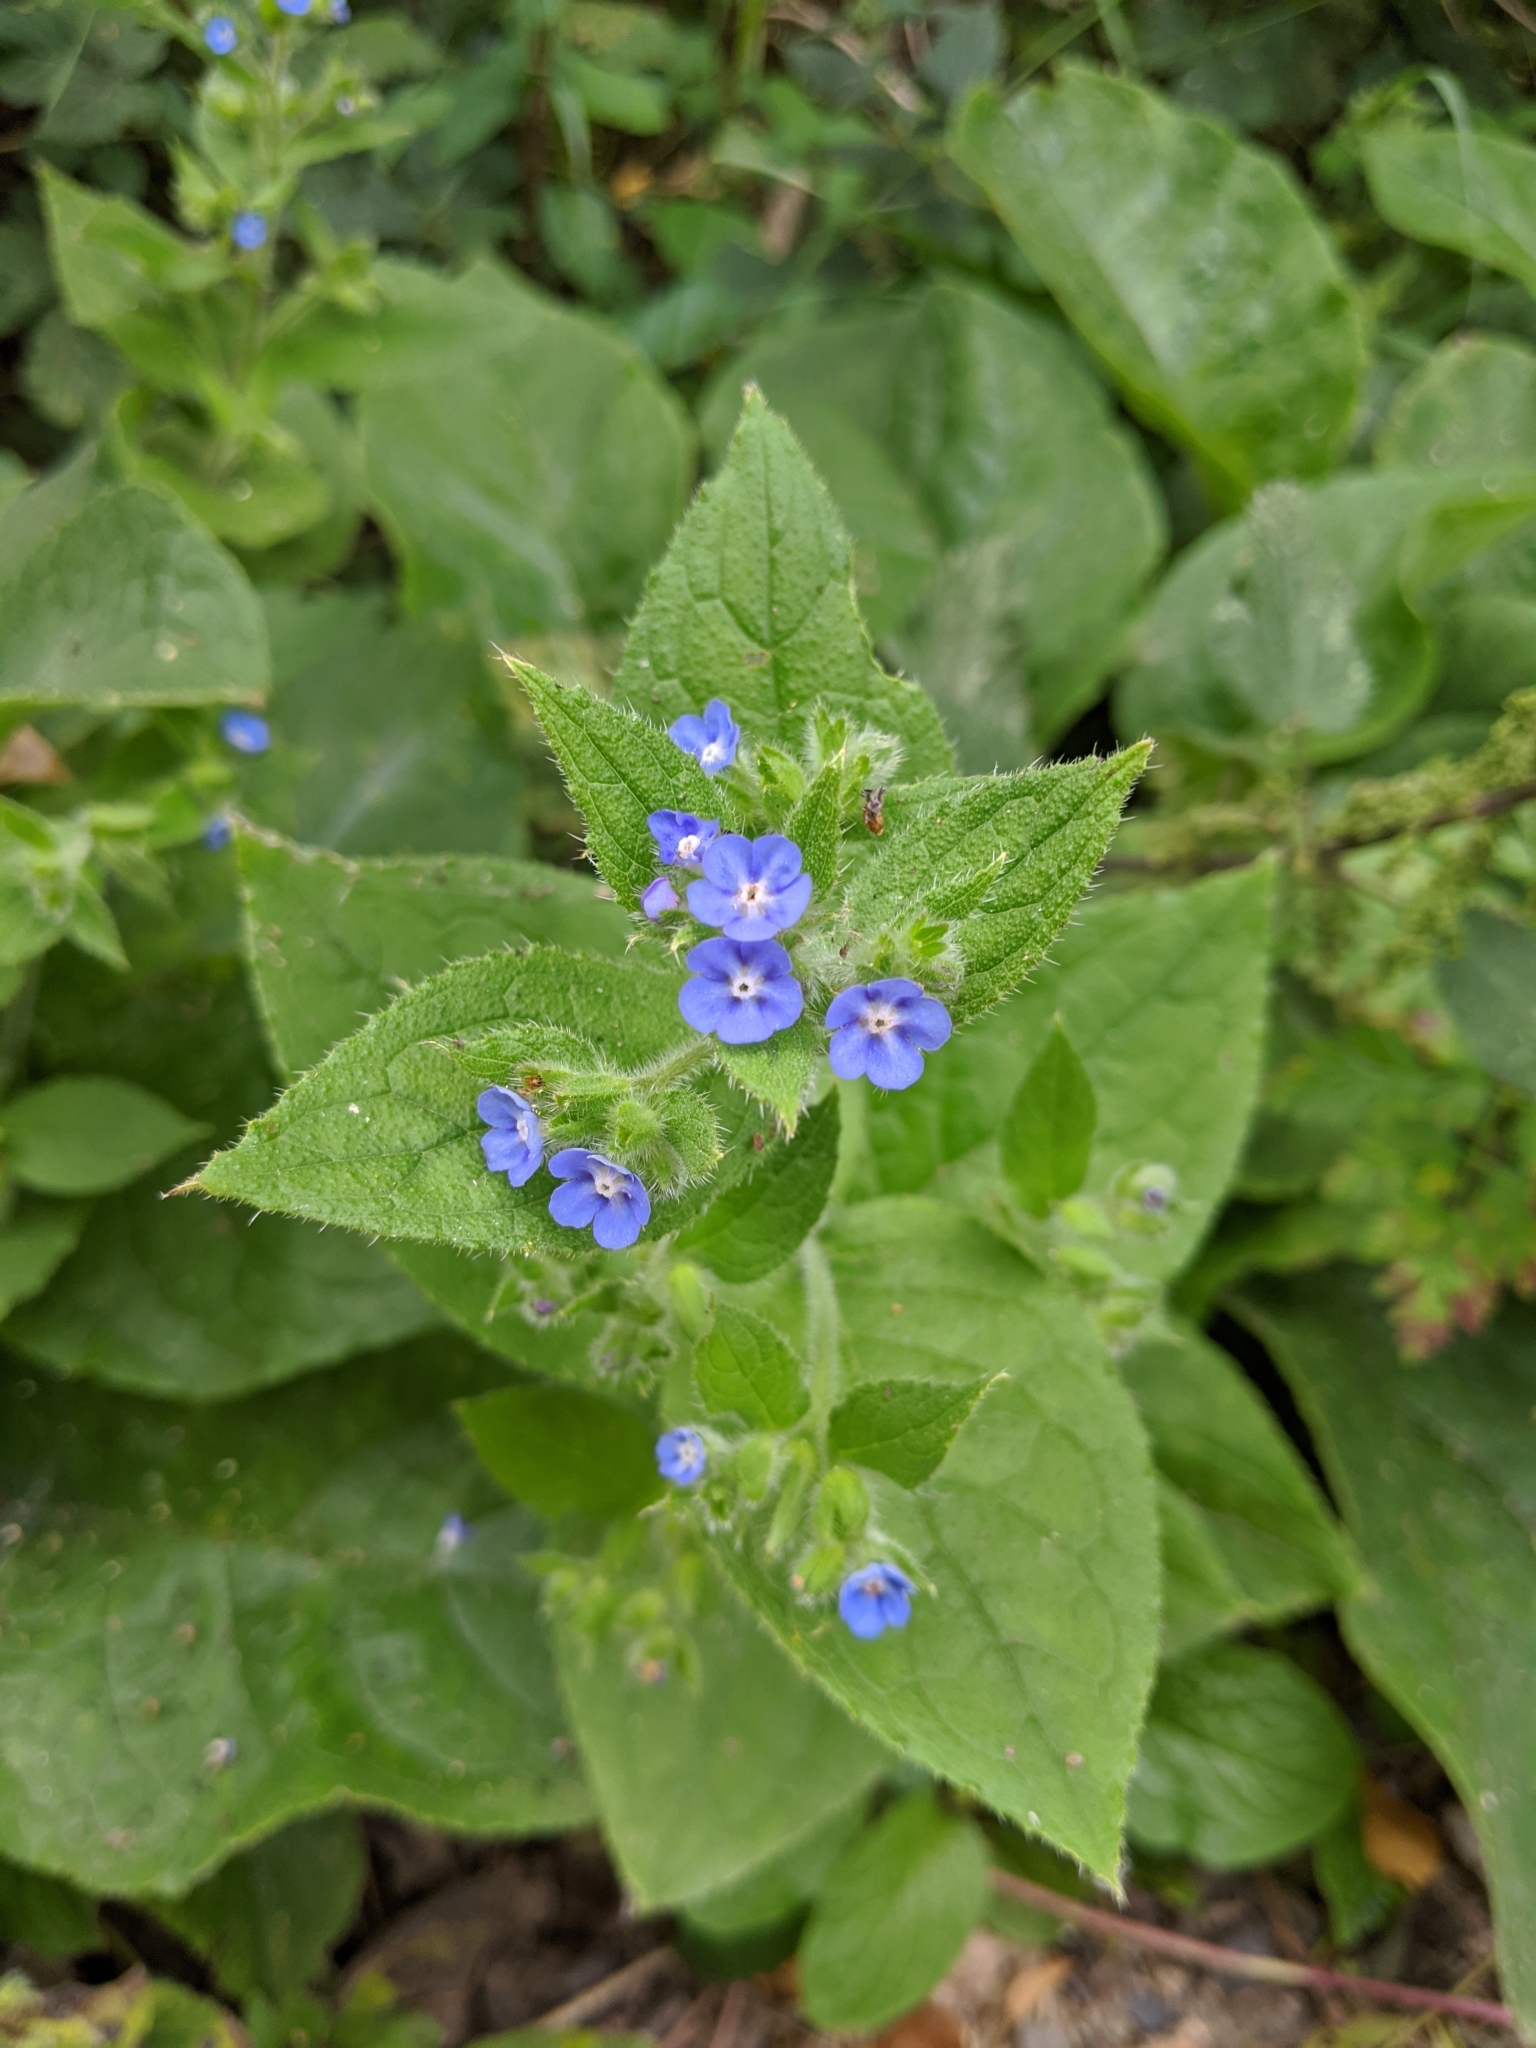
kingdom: Plantae
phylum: Tracheophyta
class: Magnoliopsida
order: Boraginales
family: Boraginaceae
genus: Pentaglottis
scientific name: Pentaglottis sempervirens
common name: Green alkanet
